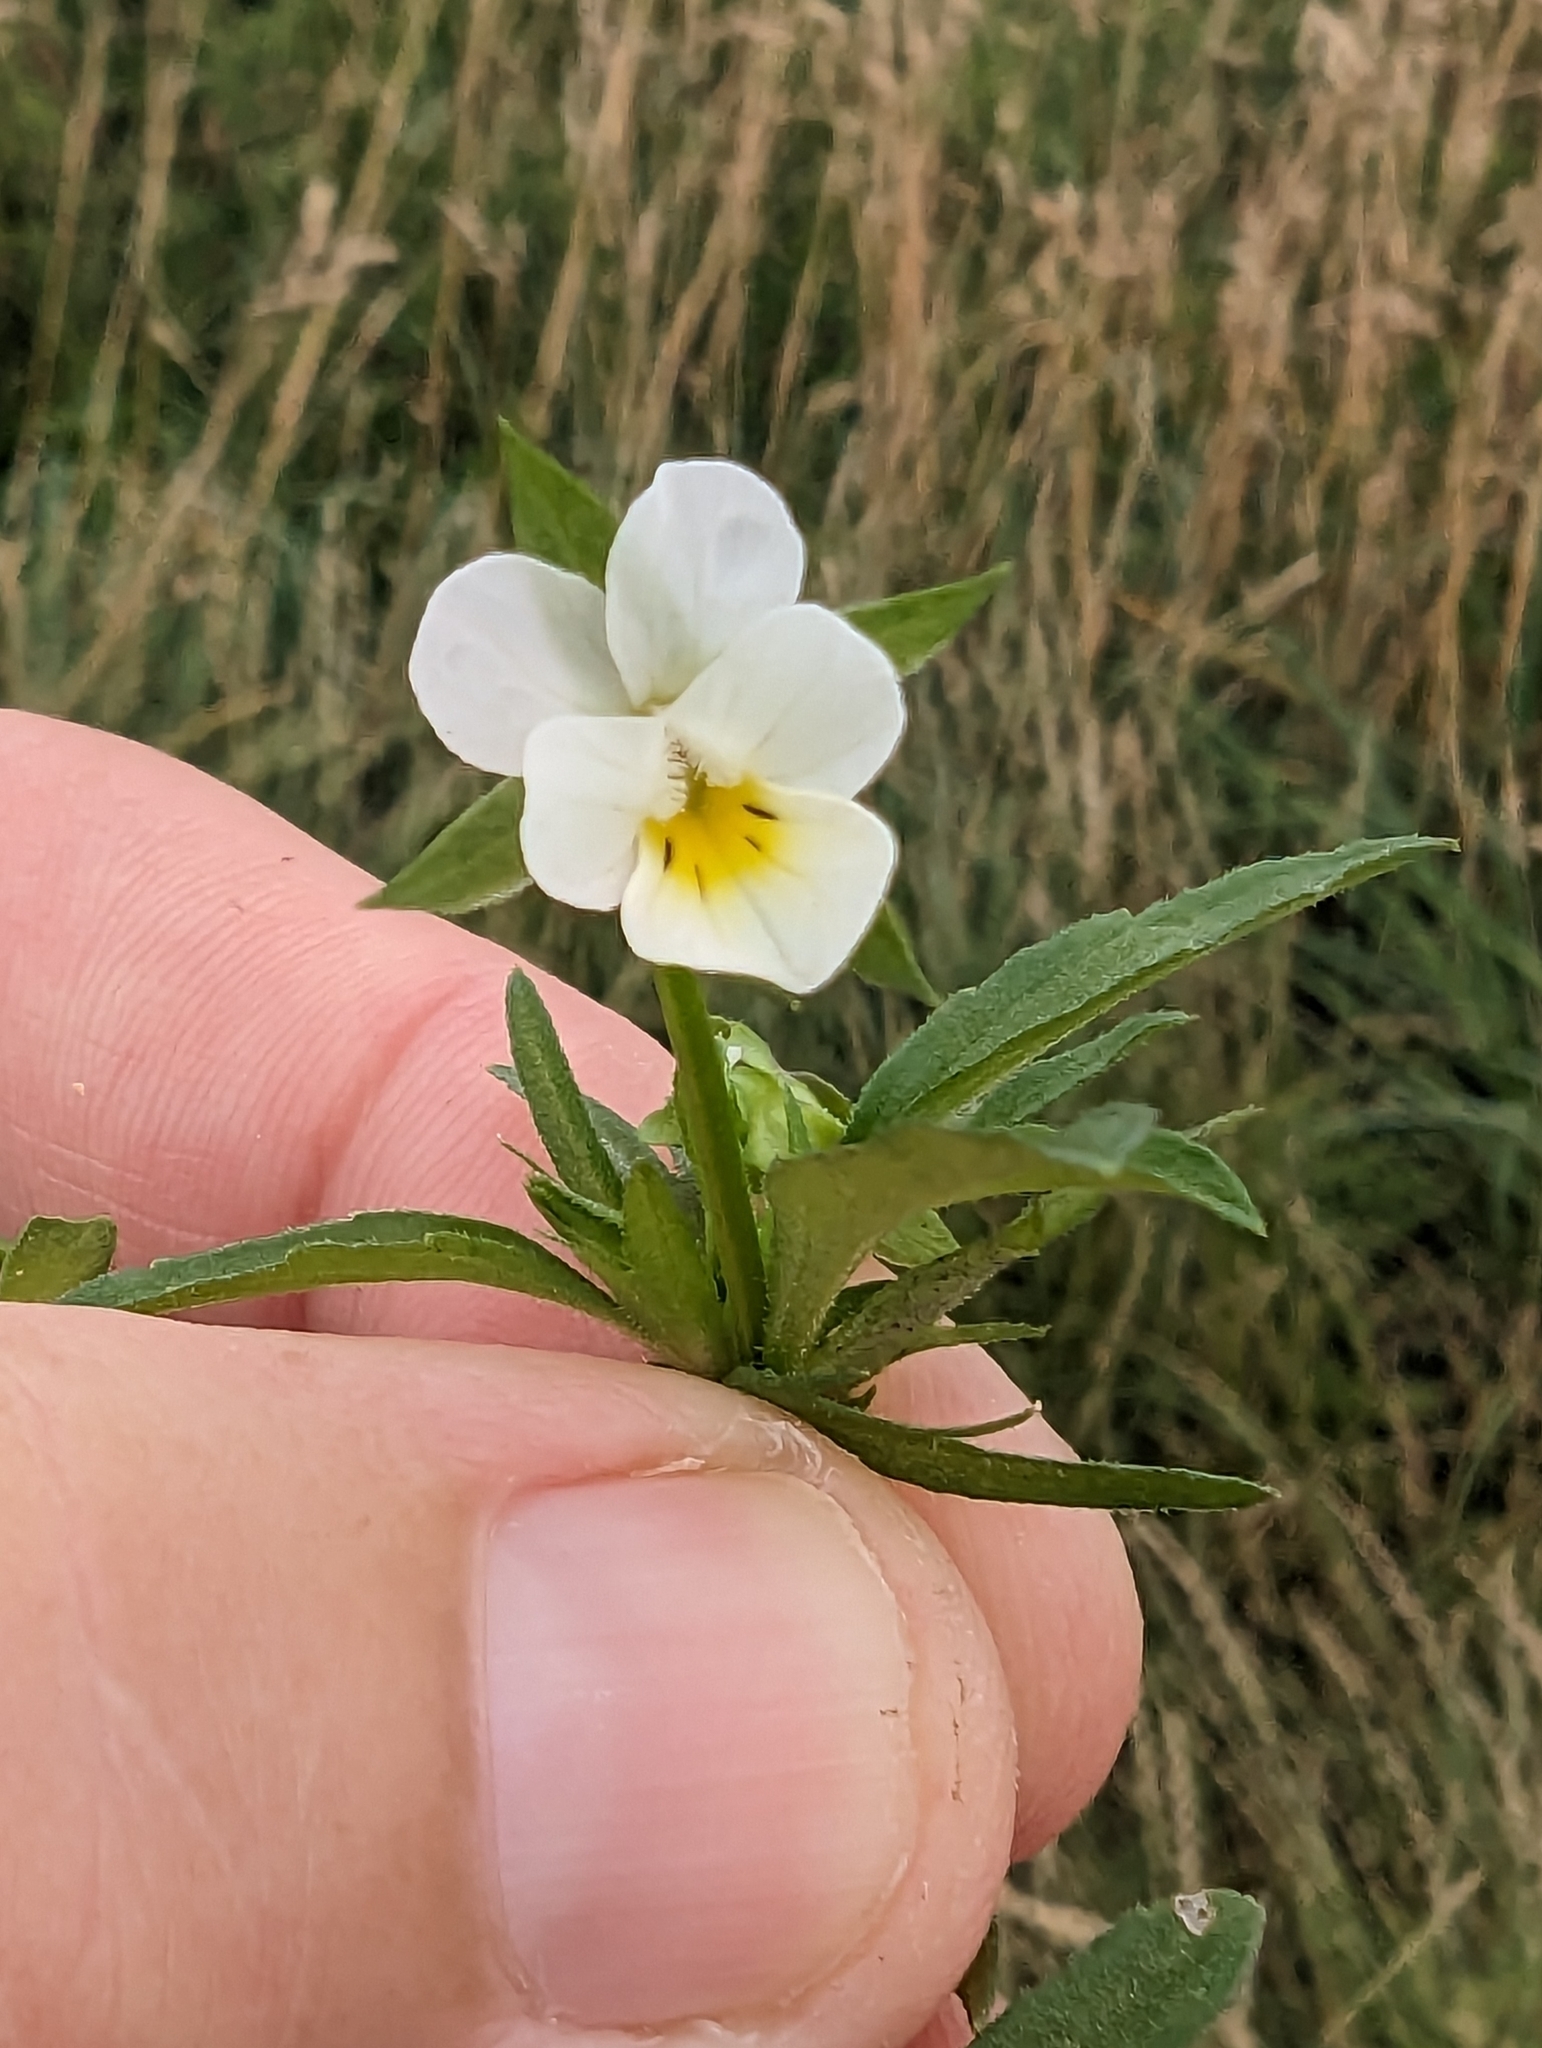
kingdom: Plantae
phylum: Tracheophyta
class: Magnoliopsida
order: Malpighiales
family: Violaceae
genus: Viola
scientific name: Viola arvensis
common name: Field pansy
